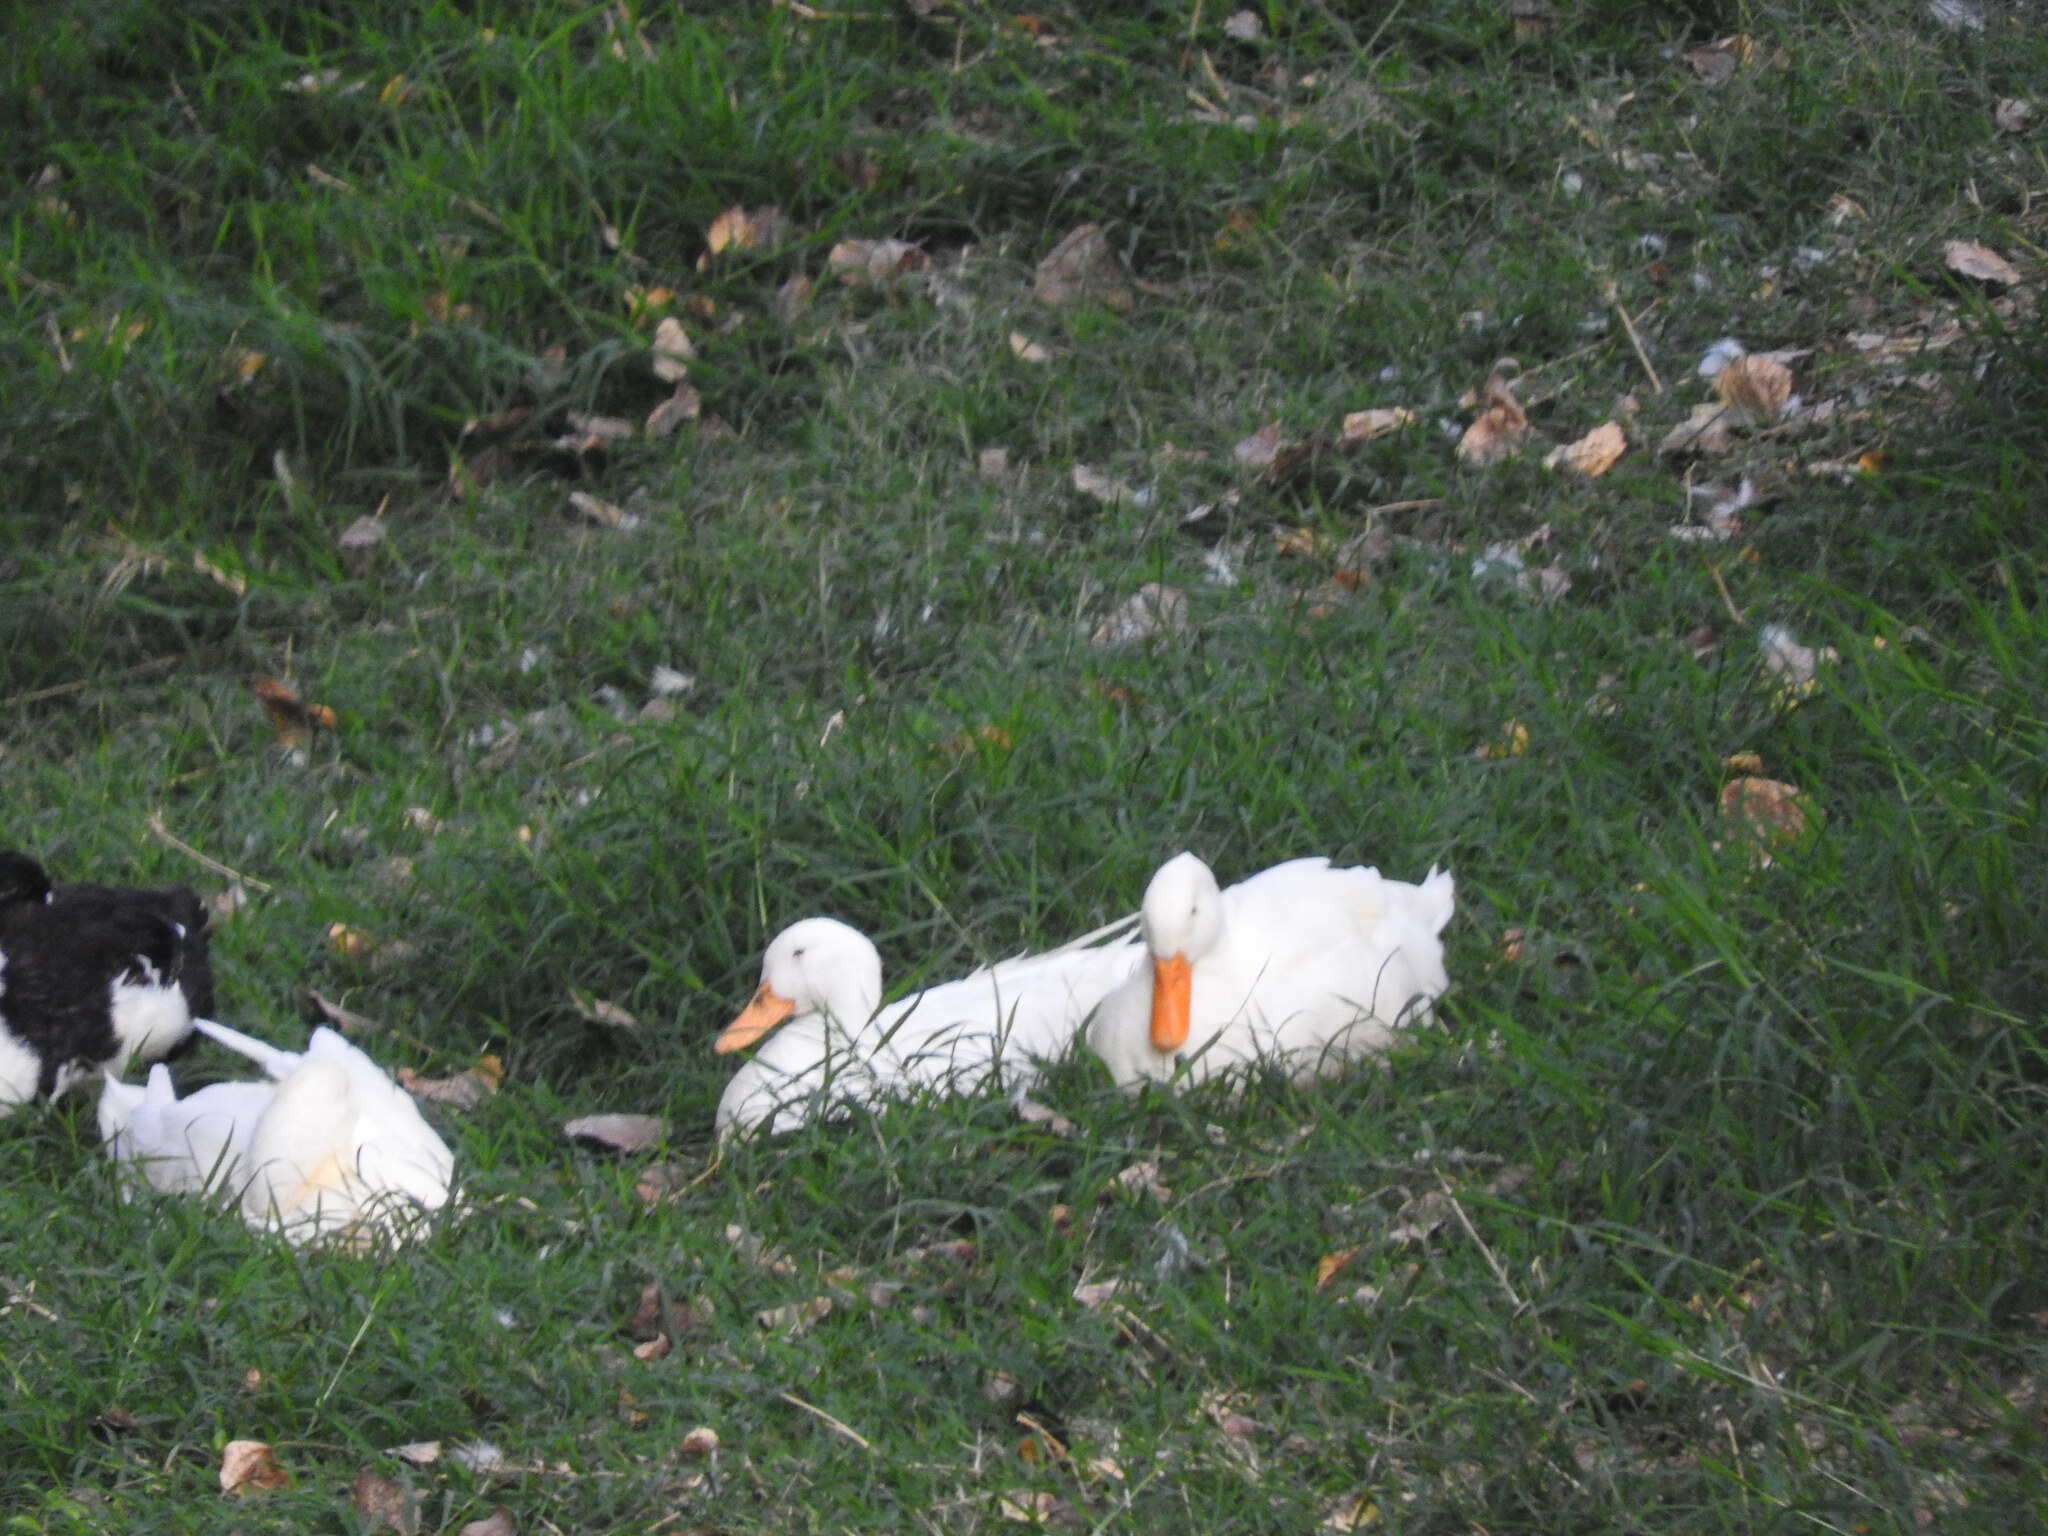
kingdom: Animalia
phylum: Chordata
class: Aves
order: Anseriformes
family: Anatidae
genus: Anas
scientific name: Anas platyrhynchos
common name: Mallard
